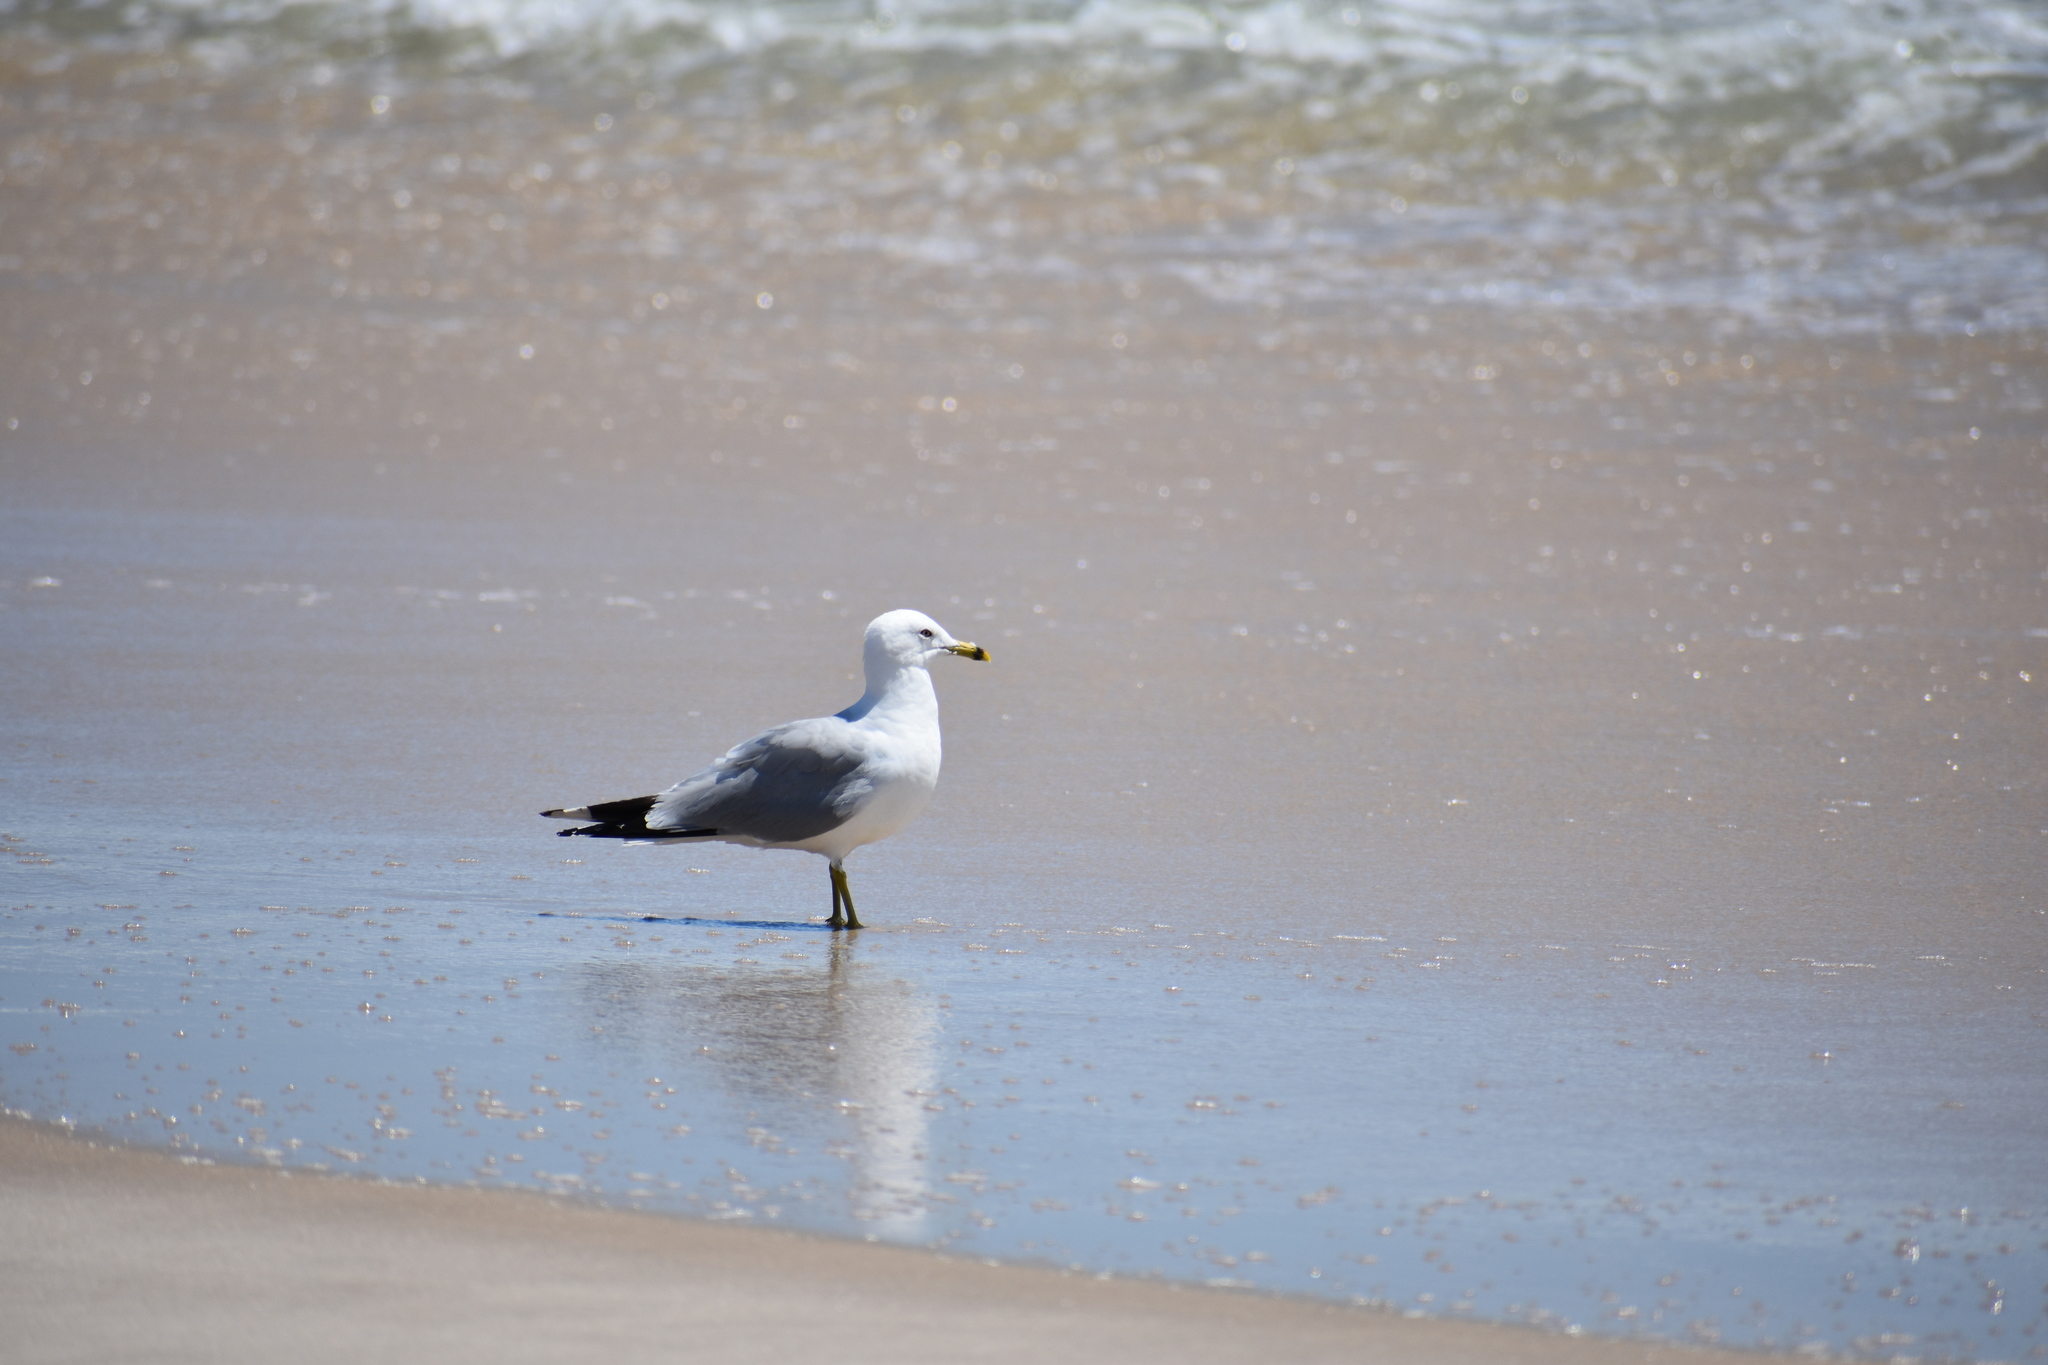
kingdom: Animalia
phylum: Chordata
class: Aves
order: Charadriiformes
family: Laridae
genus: Larus
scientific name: Larus delawarensis
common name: Ring-billed gull
